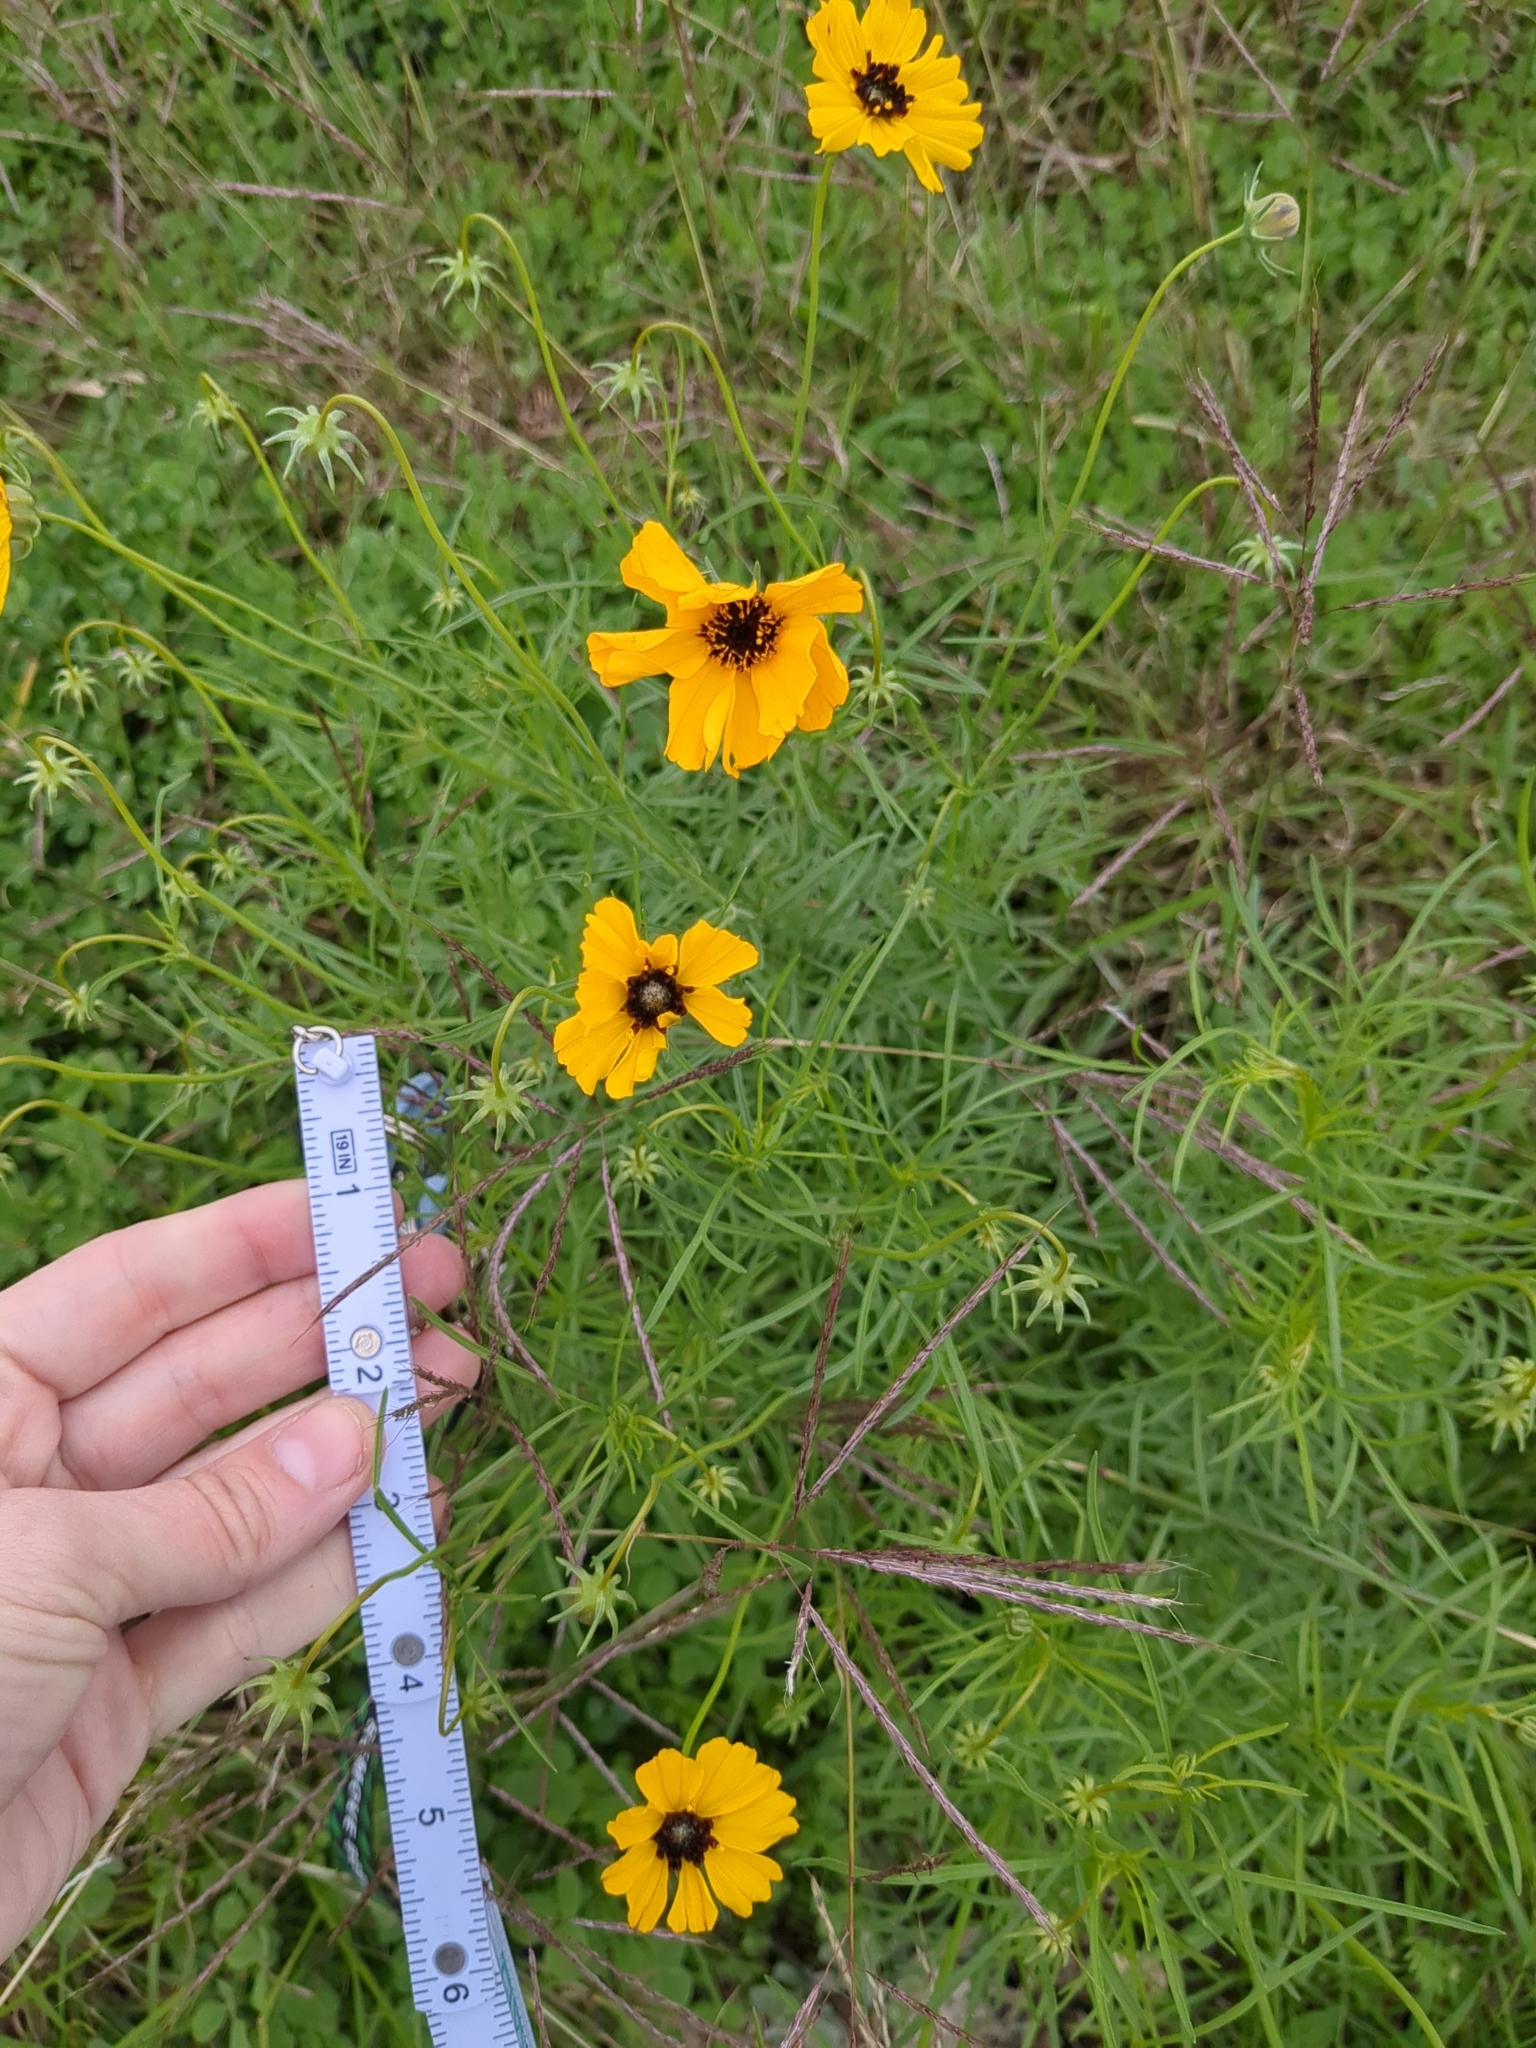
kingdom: Plantae
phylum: Tracheophyta
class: Magnoliopsida
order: Asterales
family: Asteraceae
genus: Thelesperma
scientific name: Thelesperma filifolium
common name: Stiff greenthread
